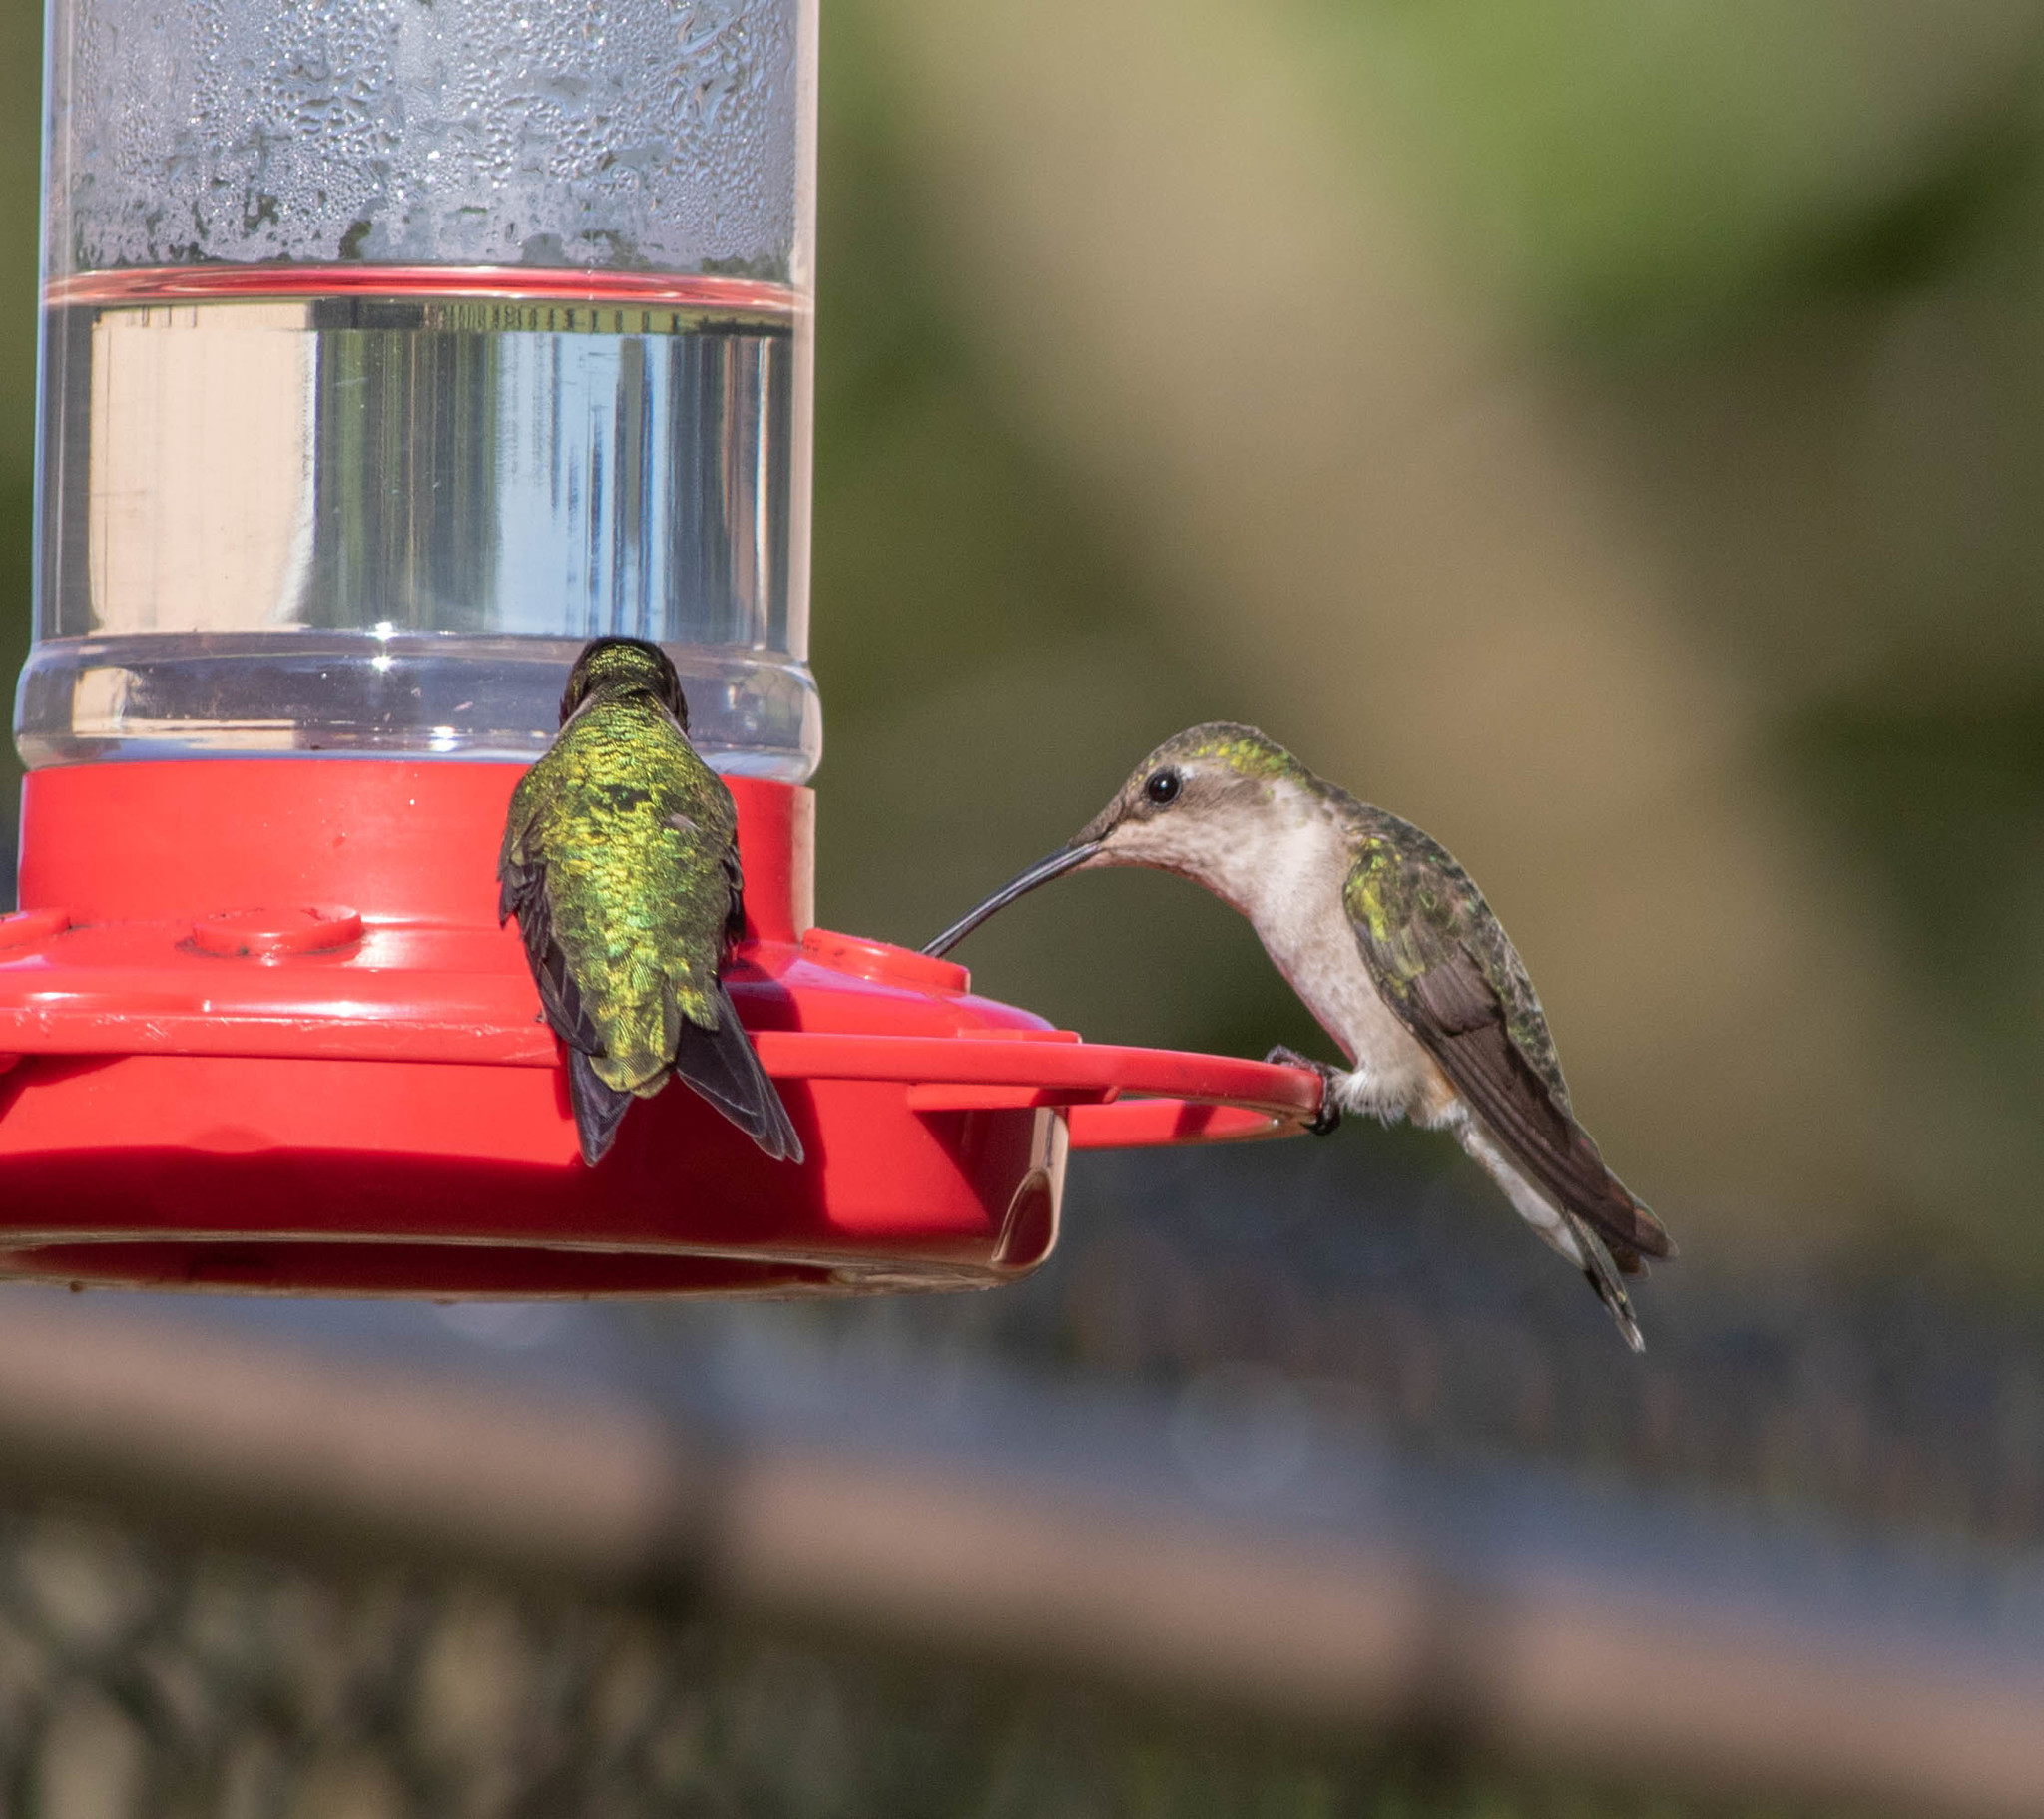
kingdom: Animalia
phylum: Chordata
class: Aves
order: Apodiformes
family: Trochilidae
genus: Archilochus
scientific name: Archilochus colubris
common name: Ruby-throated hummingbird
